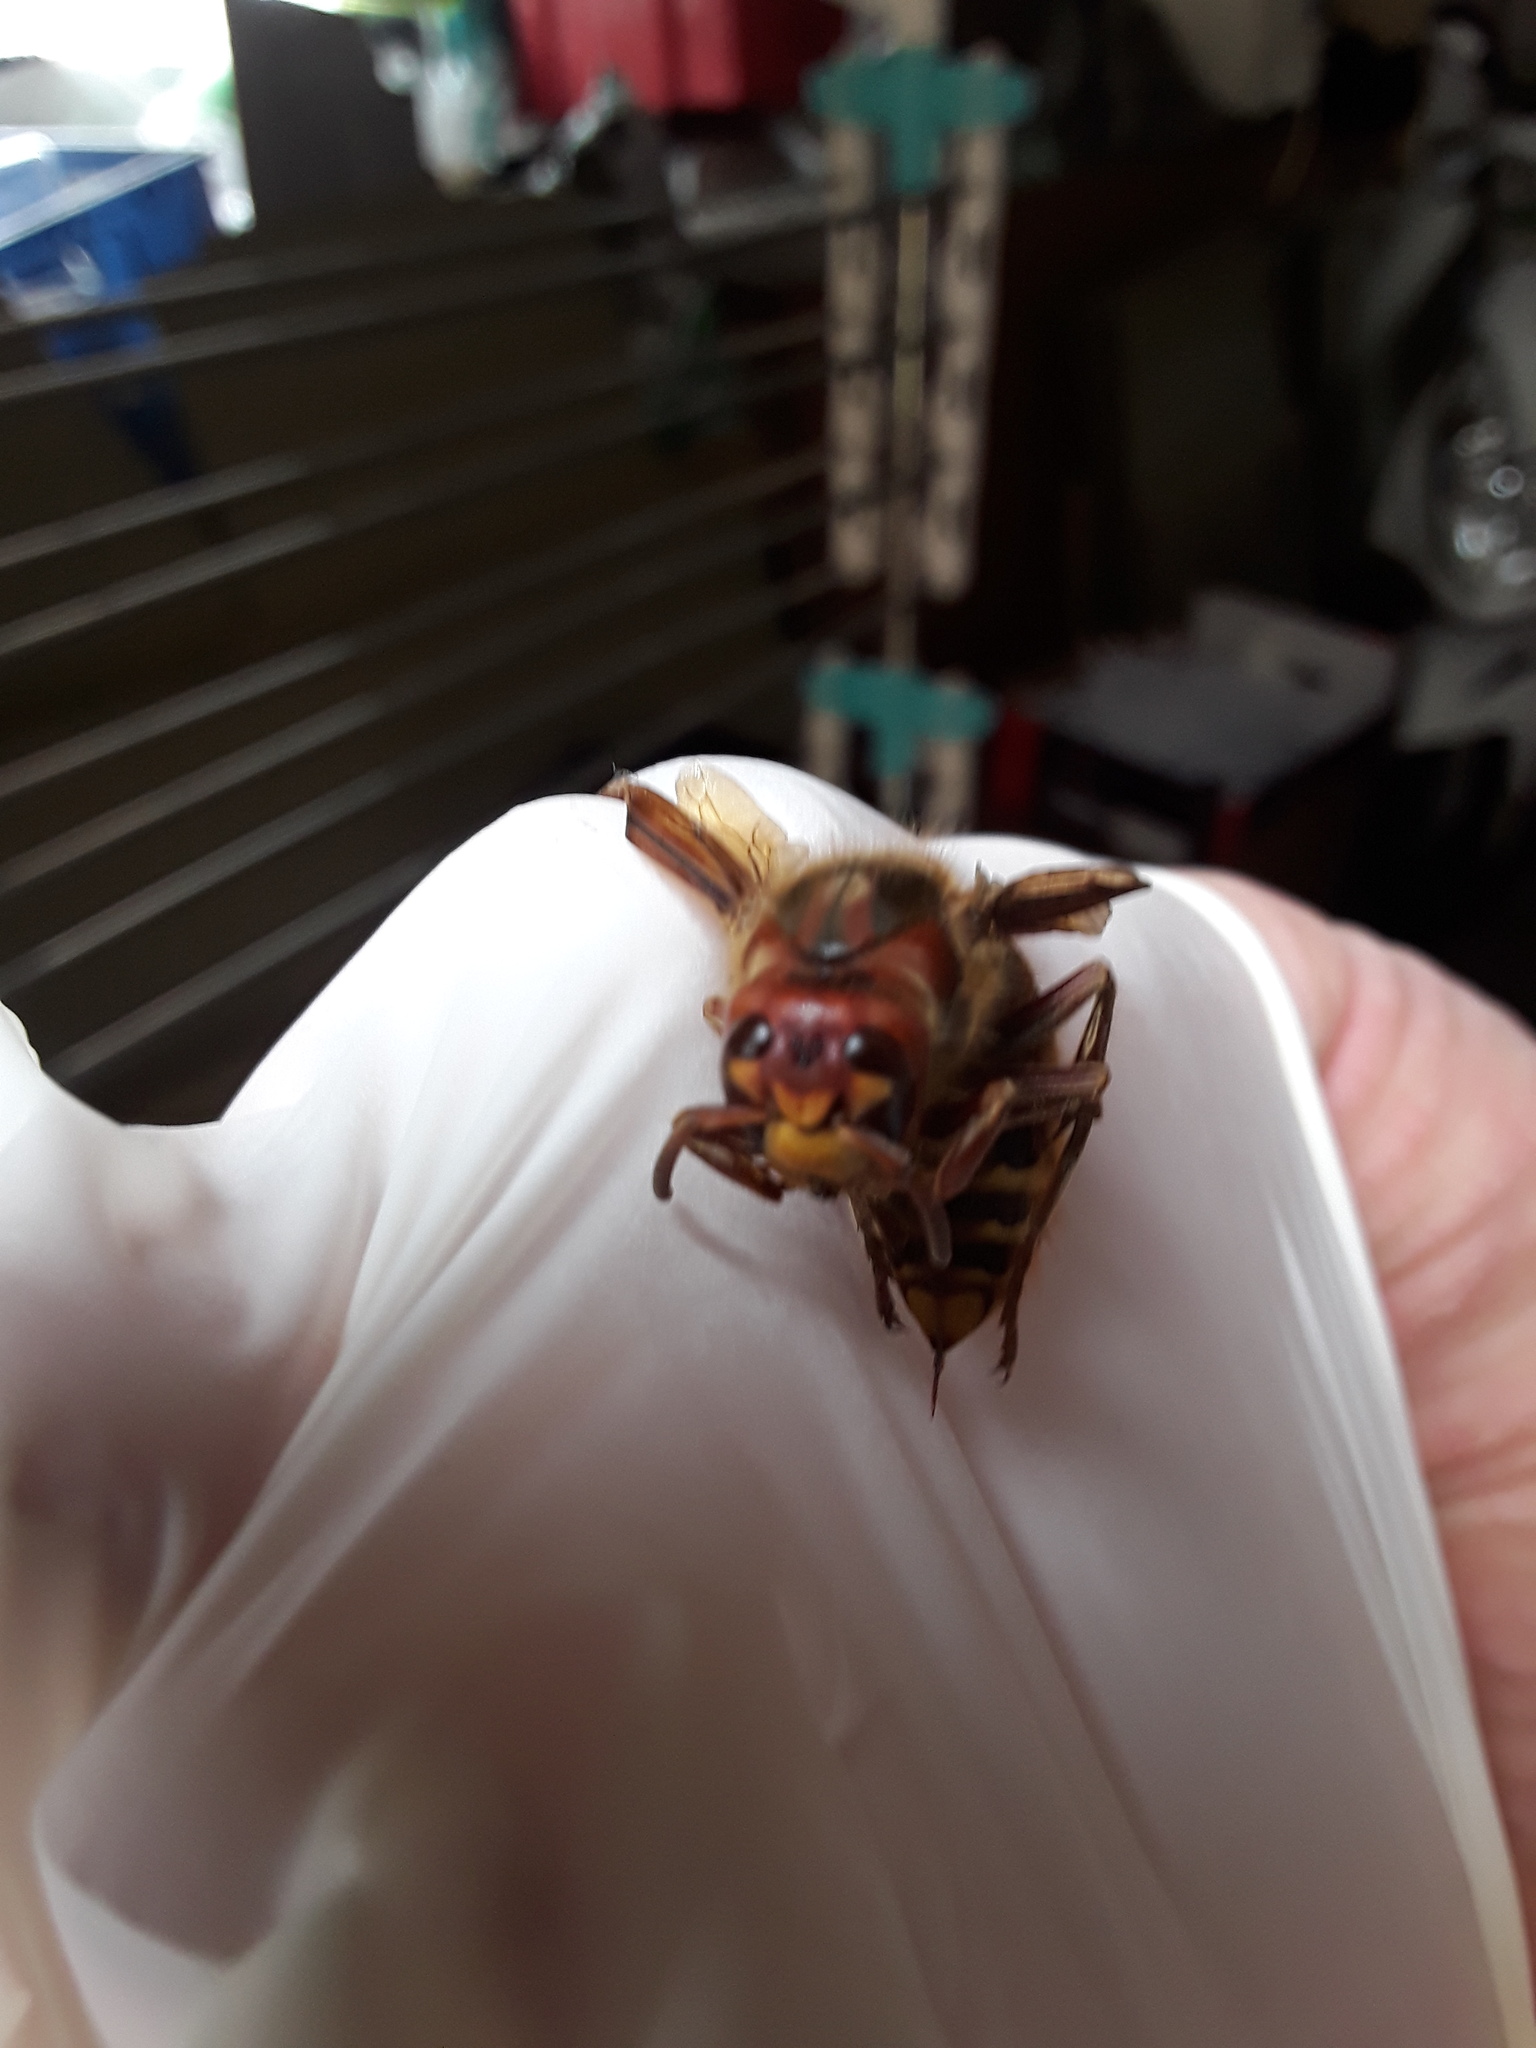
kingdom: Animalia
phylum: Arthropoda
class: Insecta
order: Hymenoptera
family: Vespidae
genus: Vespa
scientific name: Vespa crabro
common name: Hornet
